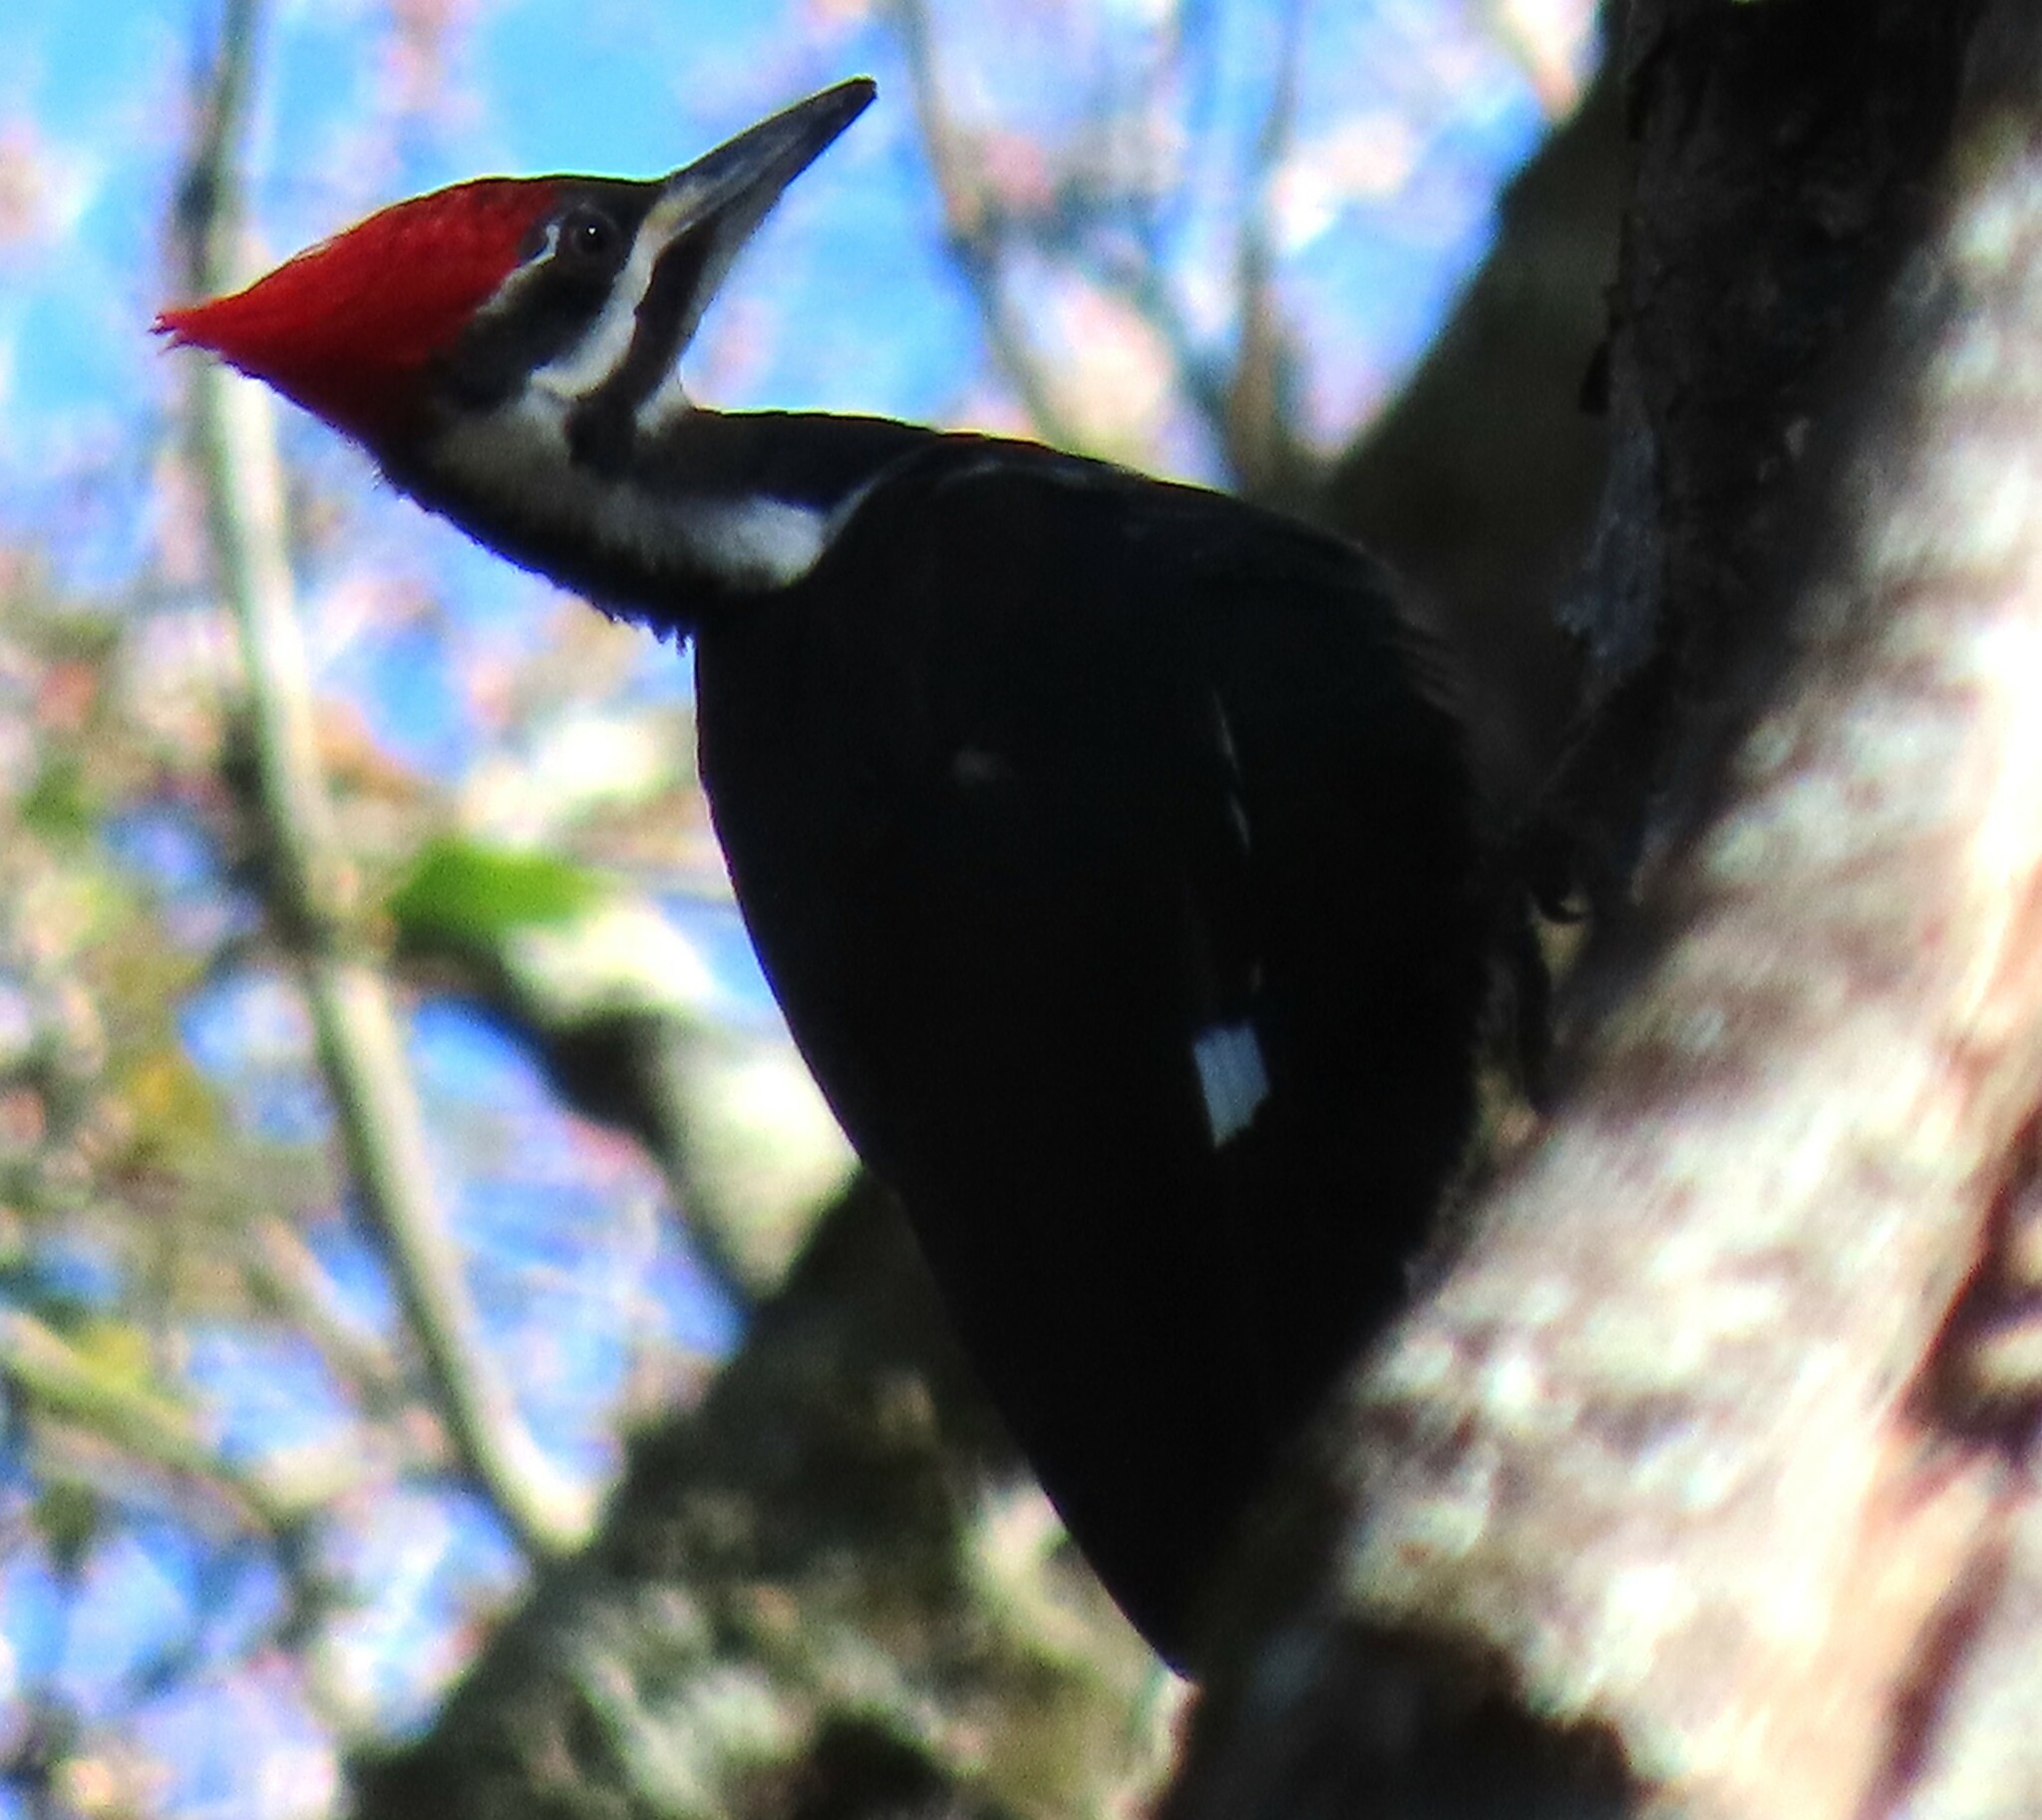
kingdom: Animalia
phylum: Chordata
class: Aves
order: Piciformes
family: Picidae
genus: Dryocopus
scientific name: Dryocopus pileatus
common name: Pileated woodpecker
